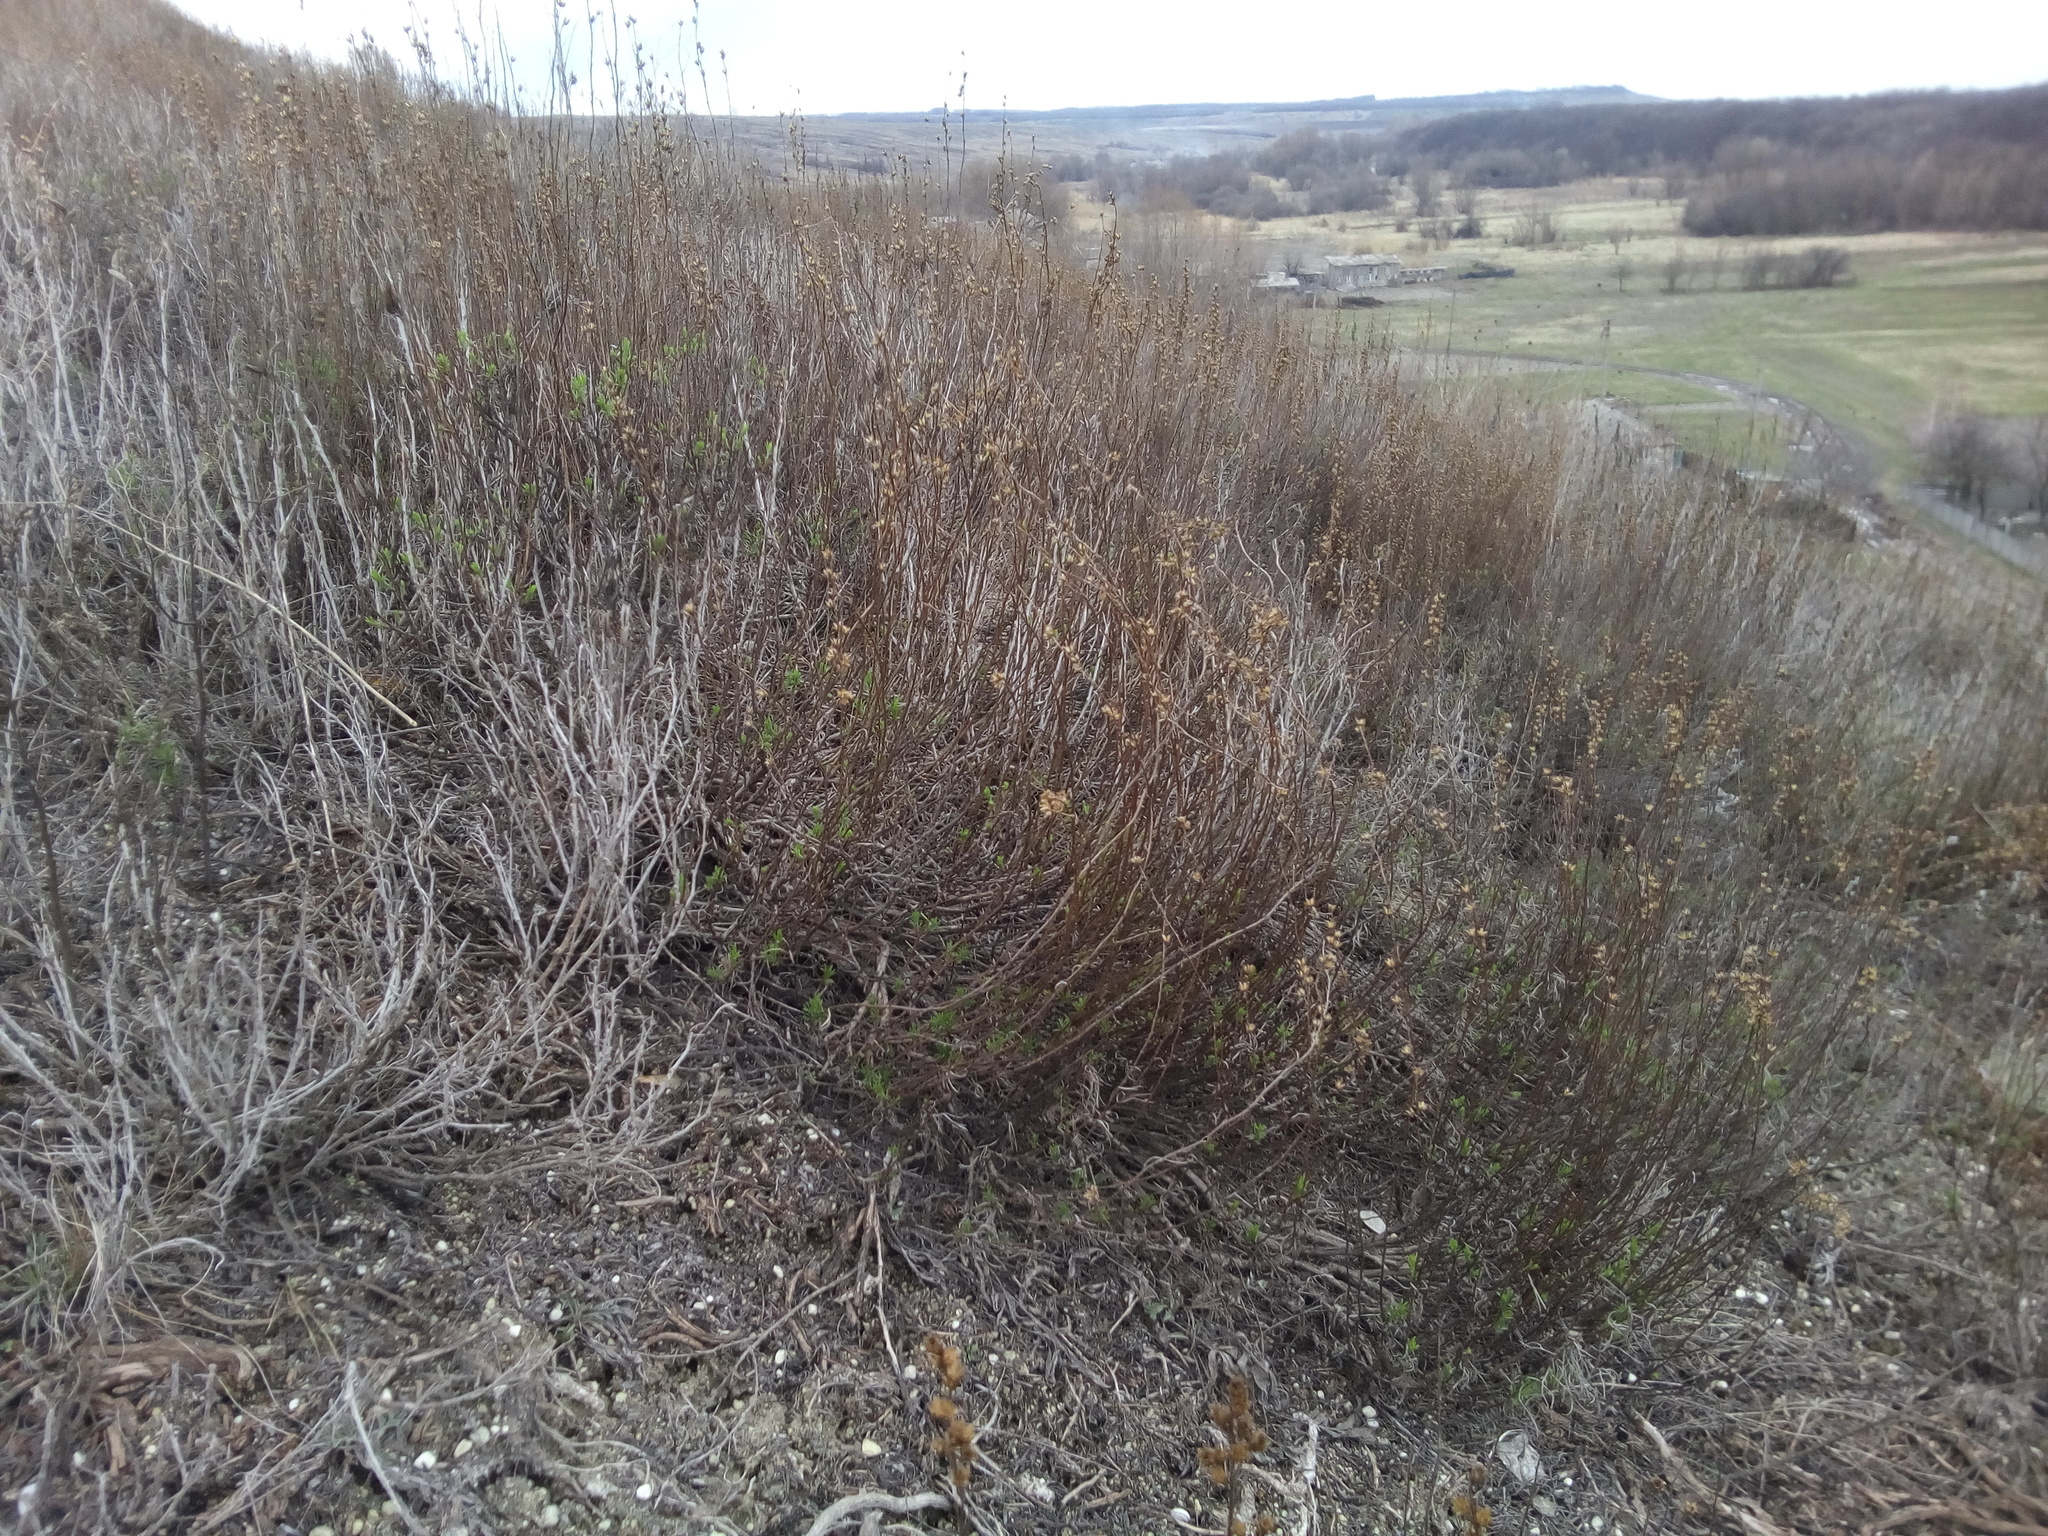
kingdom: Plantae
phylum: Tracheophyta
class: Magnoliopsida
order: Asterales
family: Asteraceae
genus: Artemisia
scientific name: Artemisia salsoloides
